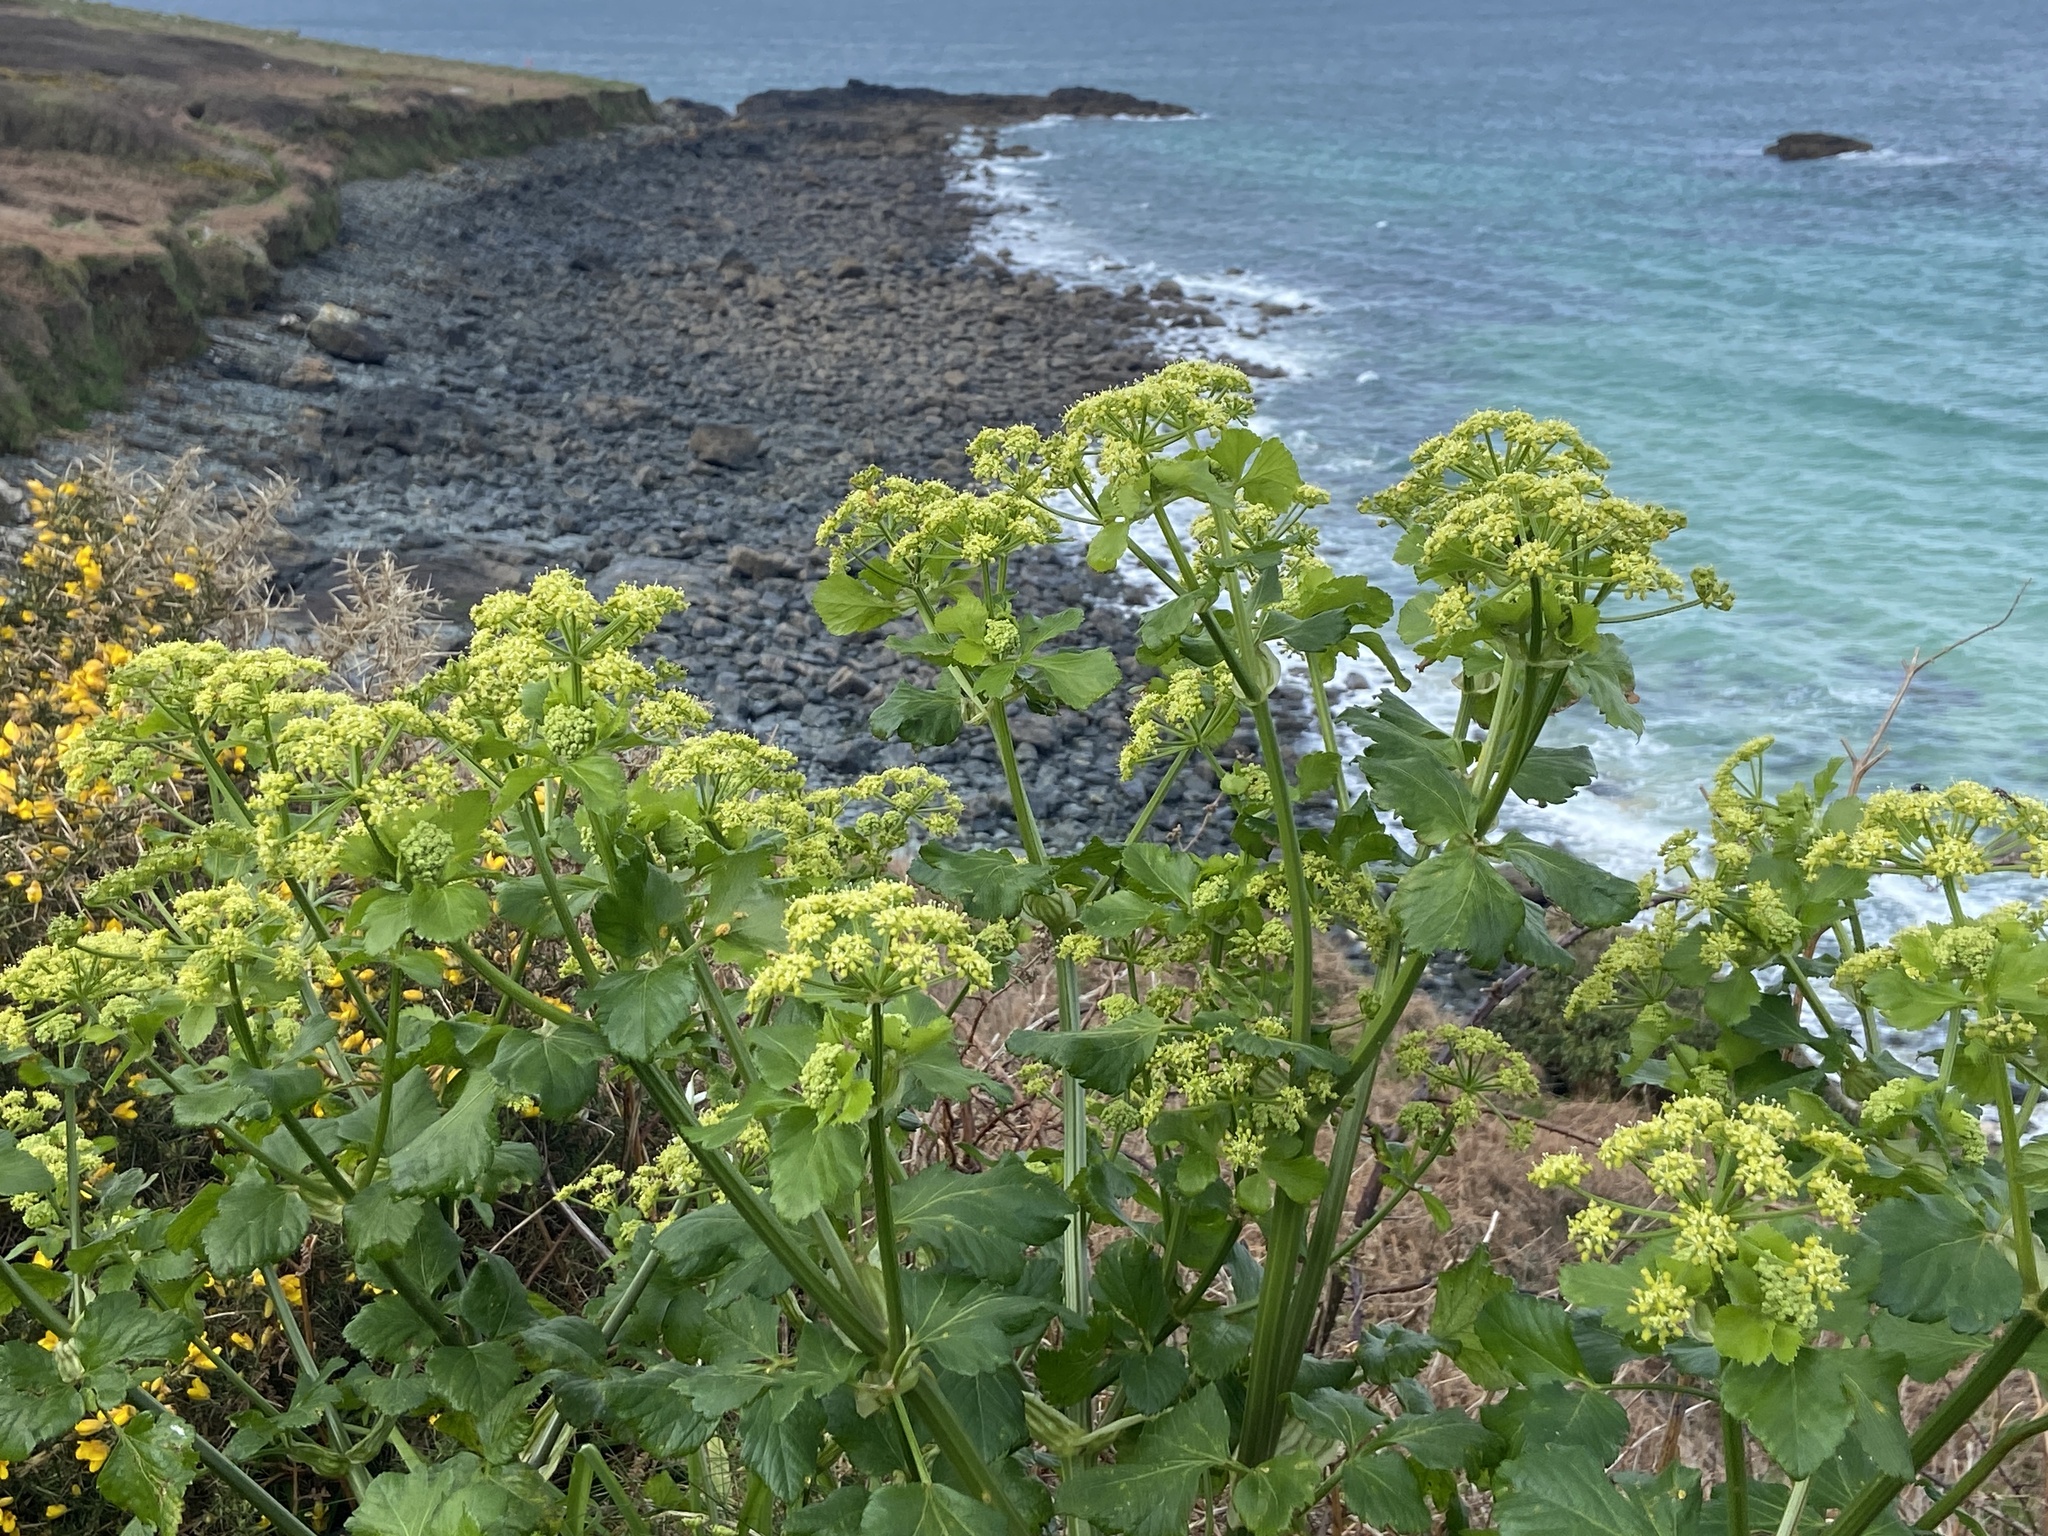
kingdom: Plantae
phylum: Tracheophyta
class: Magnoliopsida
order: Apiales
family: Apiaceae
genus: Smyrnium
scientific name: Smyrnium olusatrum
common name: Alexanders
